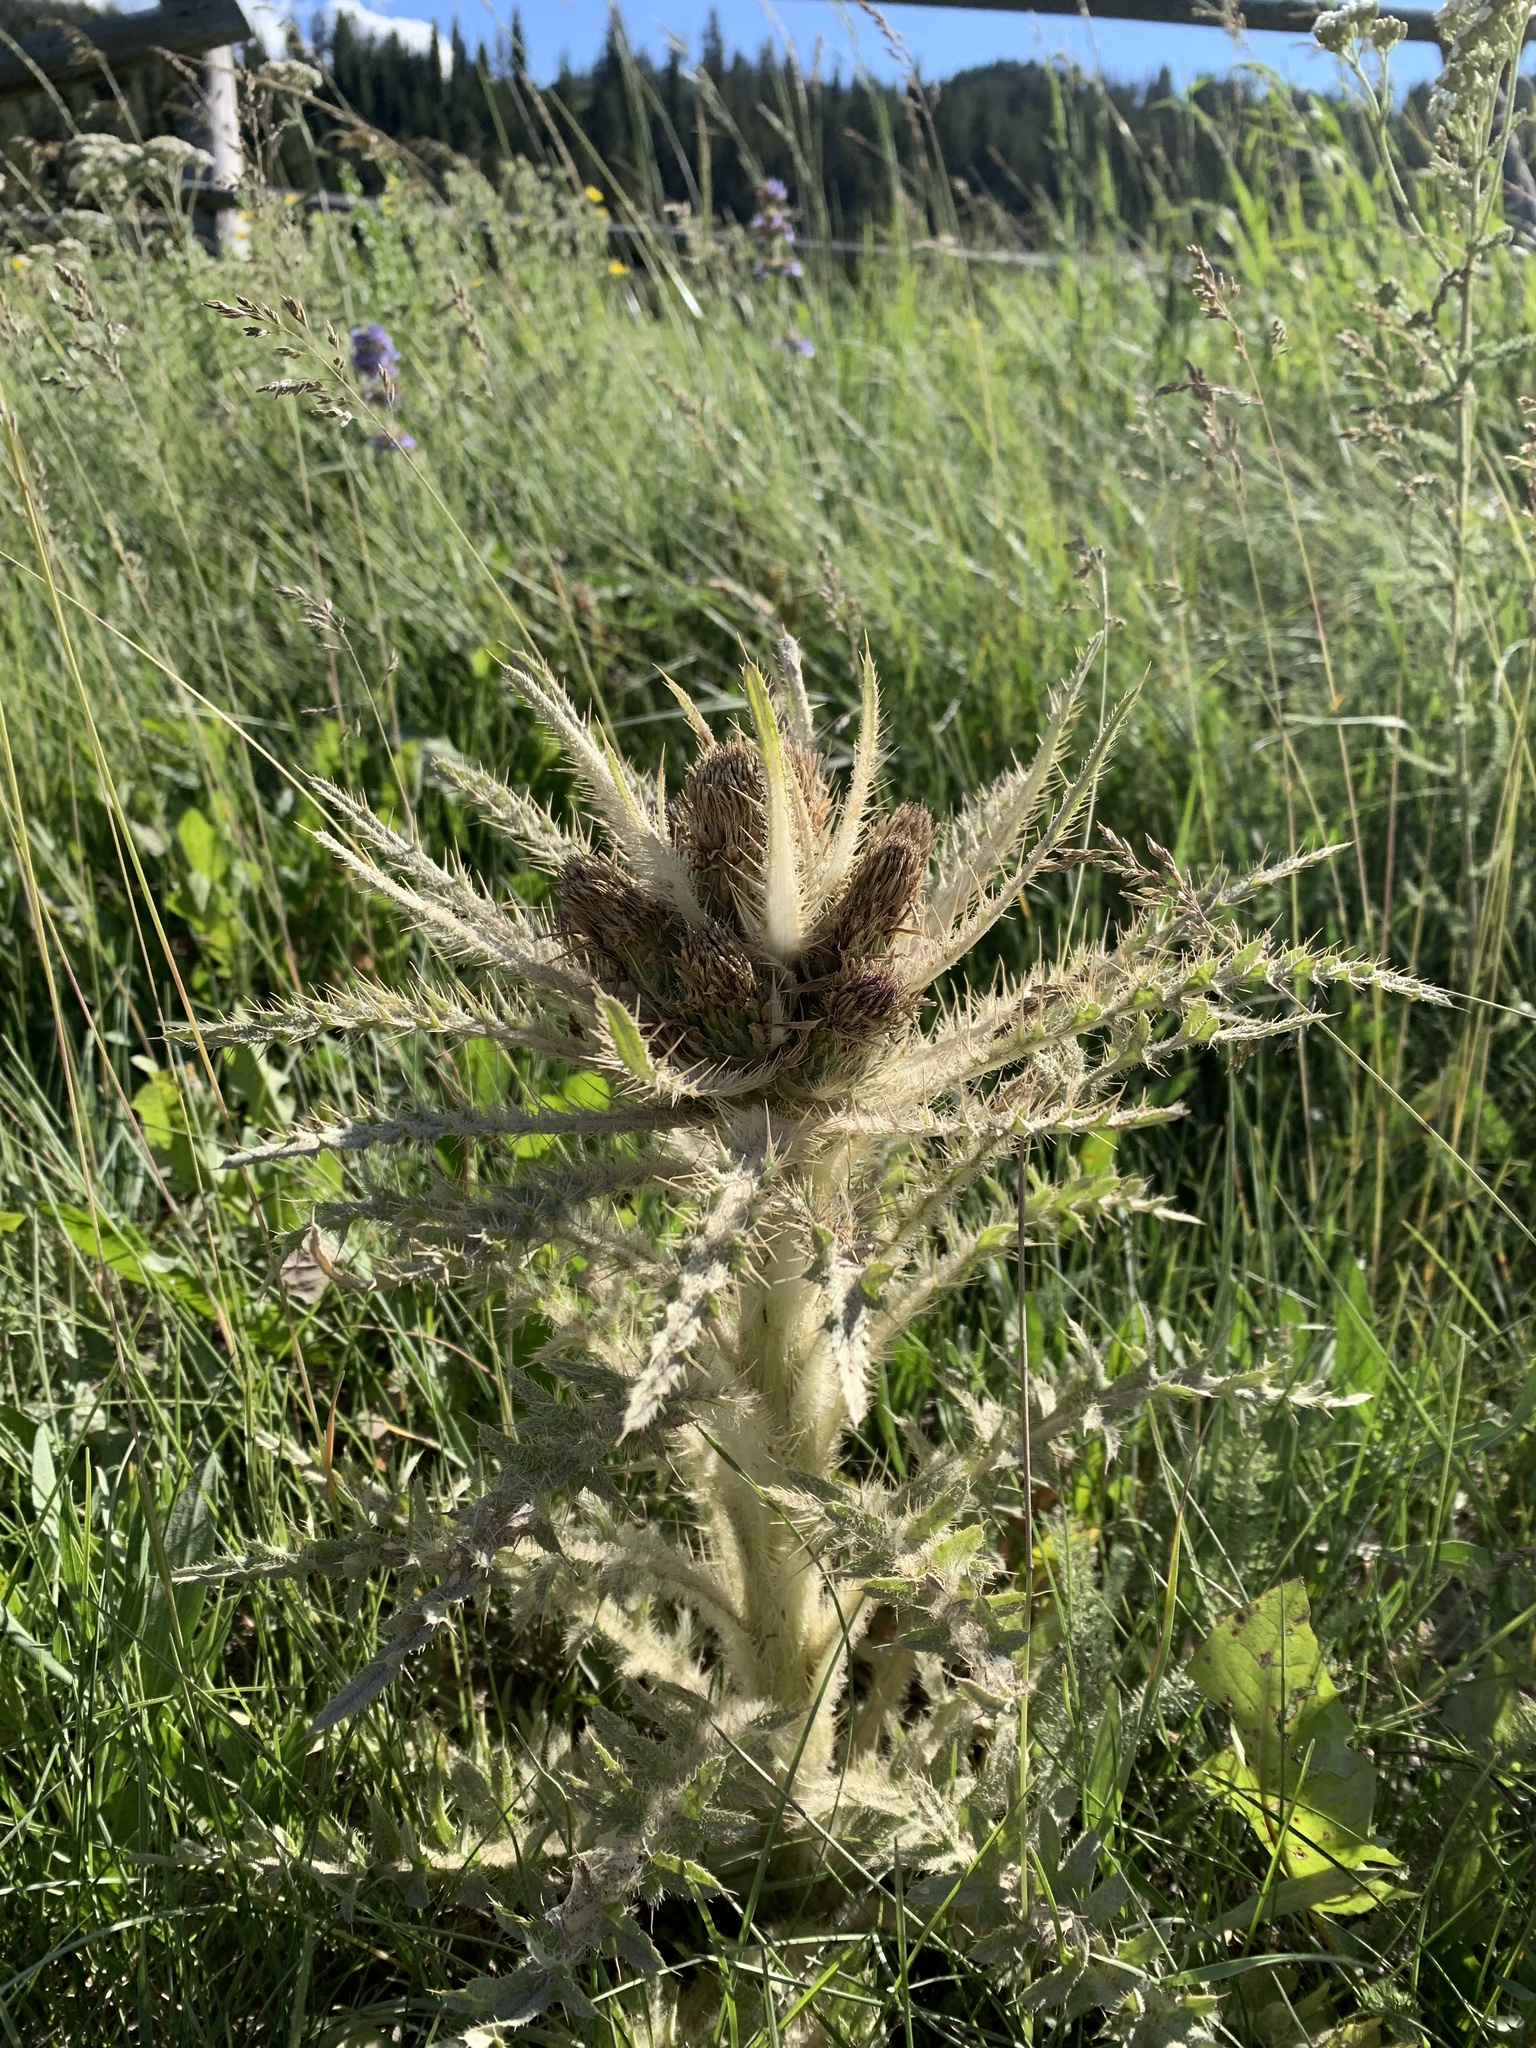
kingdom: Plantae
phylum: Tracheophyta
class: Magnoliopsida
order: Asterales
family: Asteraceae
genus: Cirsium
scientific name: Cirsium scariosum
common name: Meadow thistle
